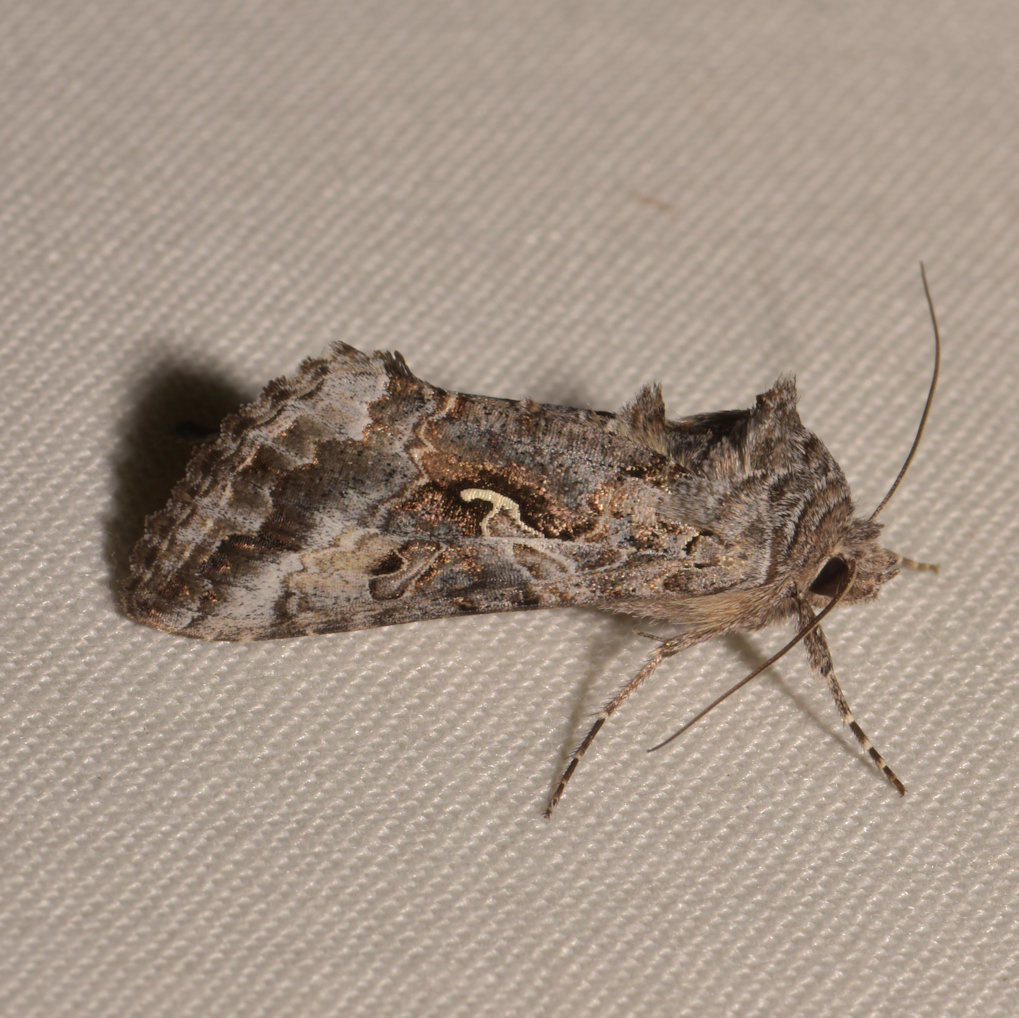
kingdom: Animalia
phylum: Arthropoda
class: Insecta
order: Lepidoptera
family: Noctuidae
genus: Autographa
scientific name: Autographa californica
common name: Alfalfa looper
